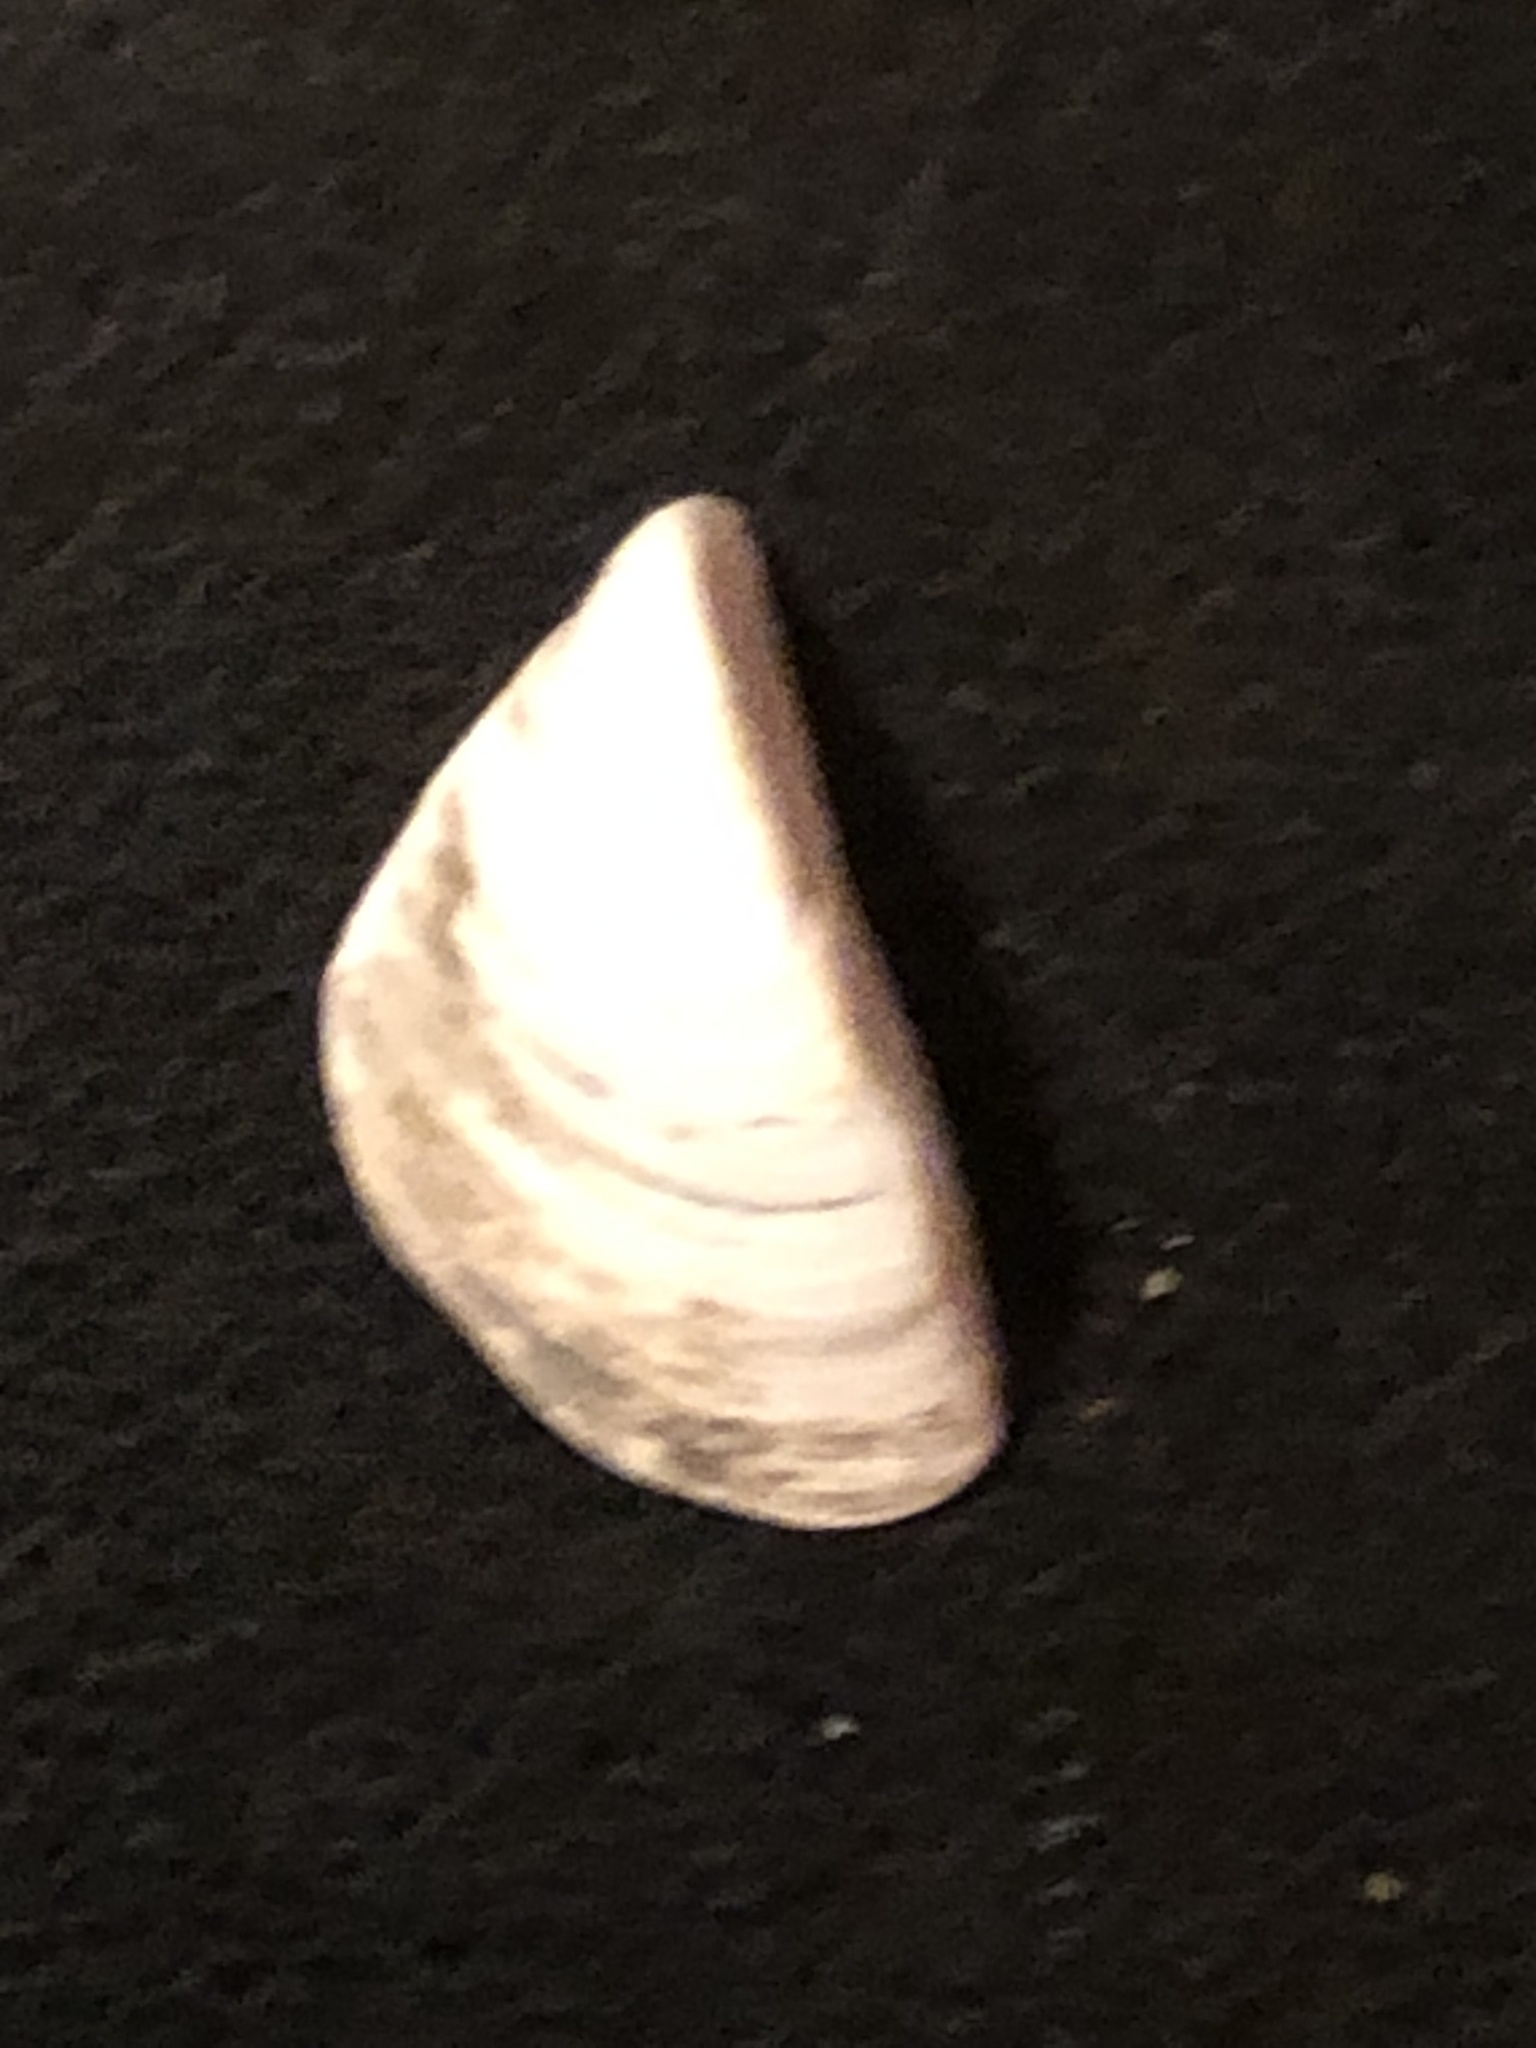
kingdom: Animalia
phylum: Mollusca
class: Bivalvia
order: Myida
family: Dreissenidae
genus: Dreissena
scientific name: Dreissena polymorpha
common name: Zebra mussel
